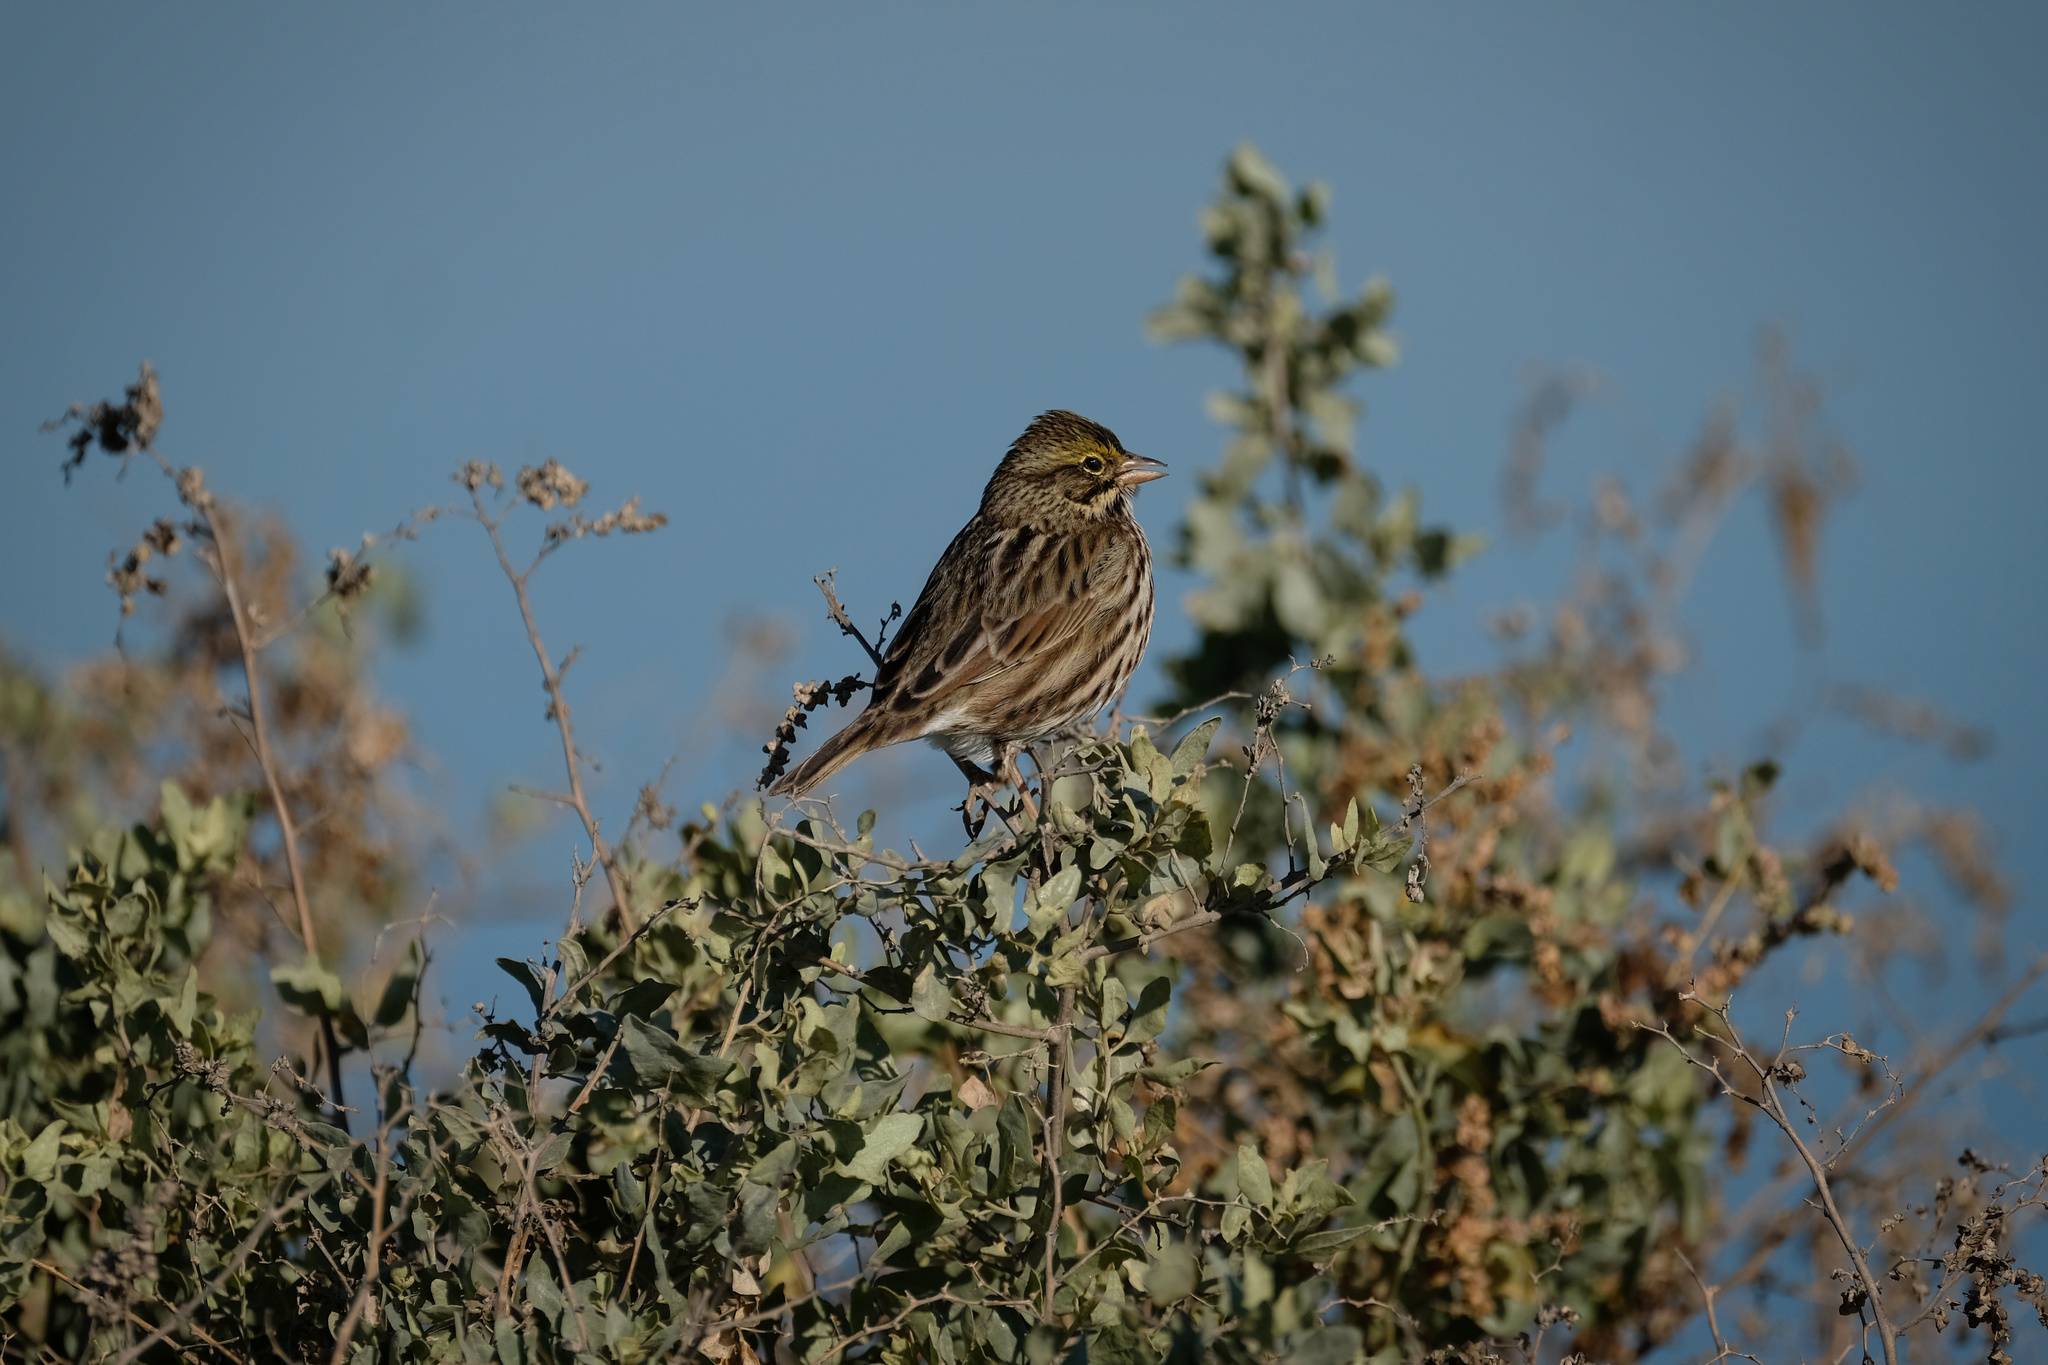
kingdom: Animalia
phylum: Chordata
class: Aves
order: Passeriformes
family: Passerellidae
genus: Passerculus
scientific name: Passerculus sandwichensis
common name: Savannah sparrow
